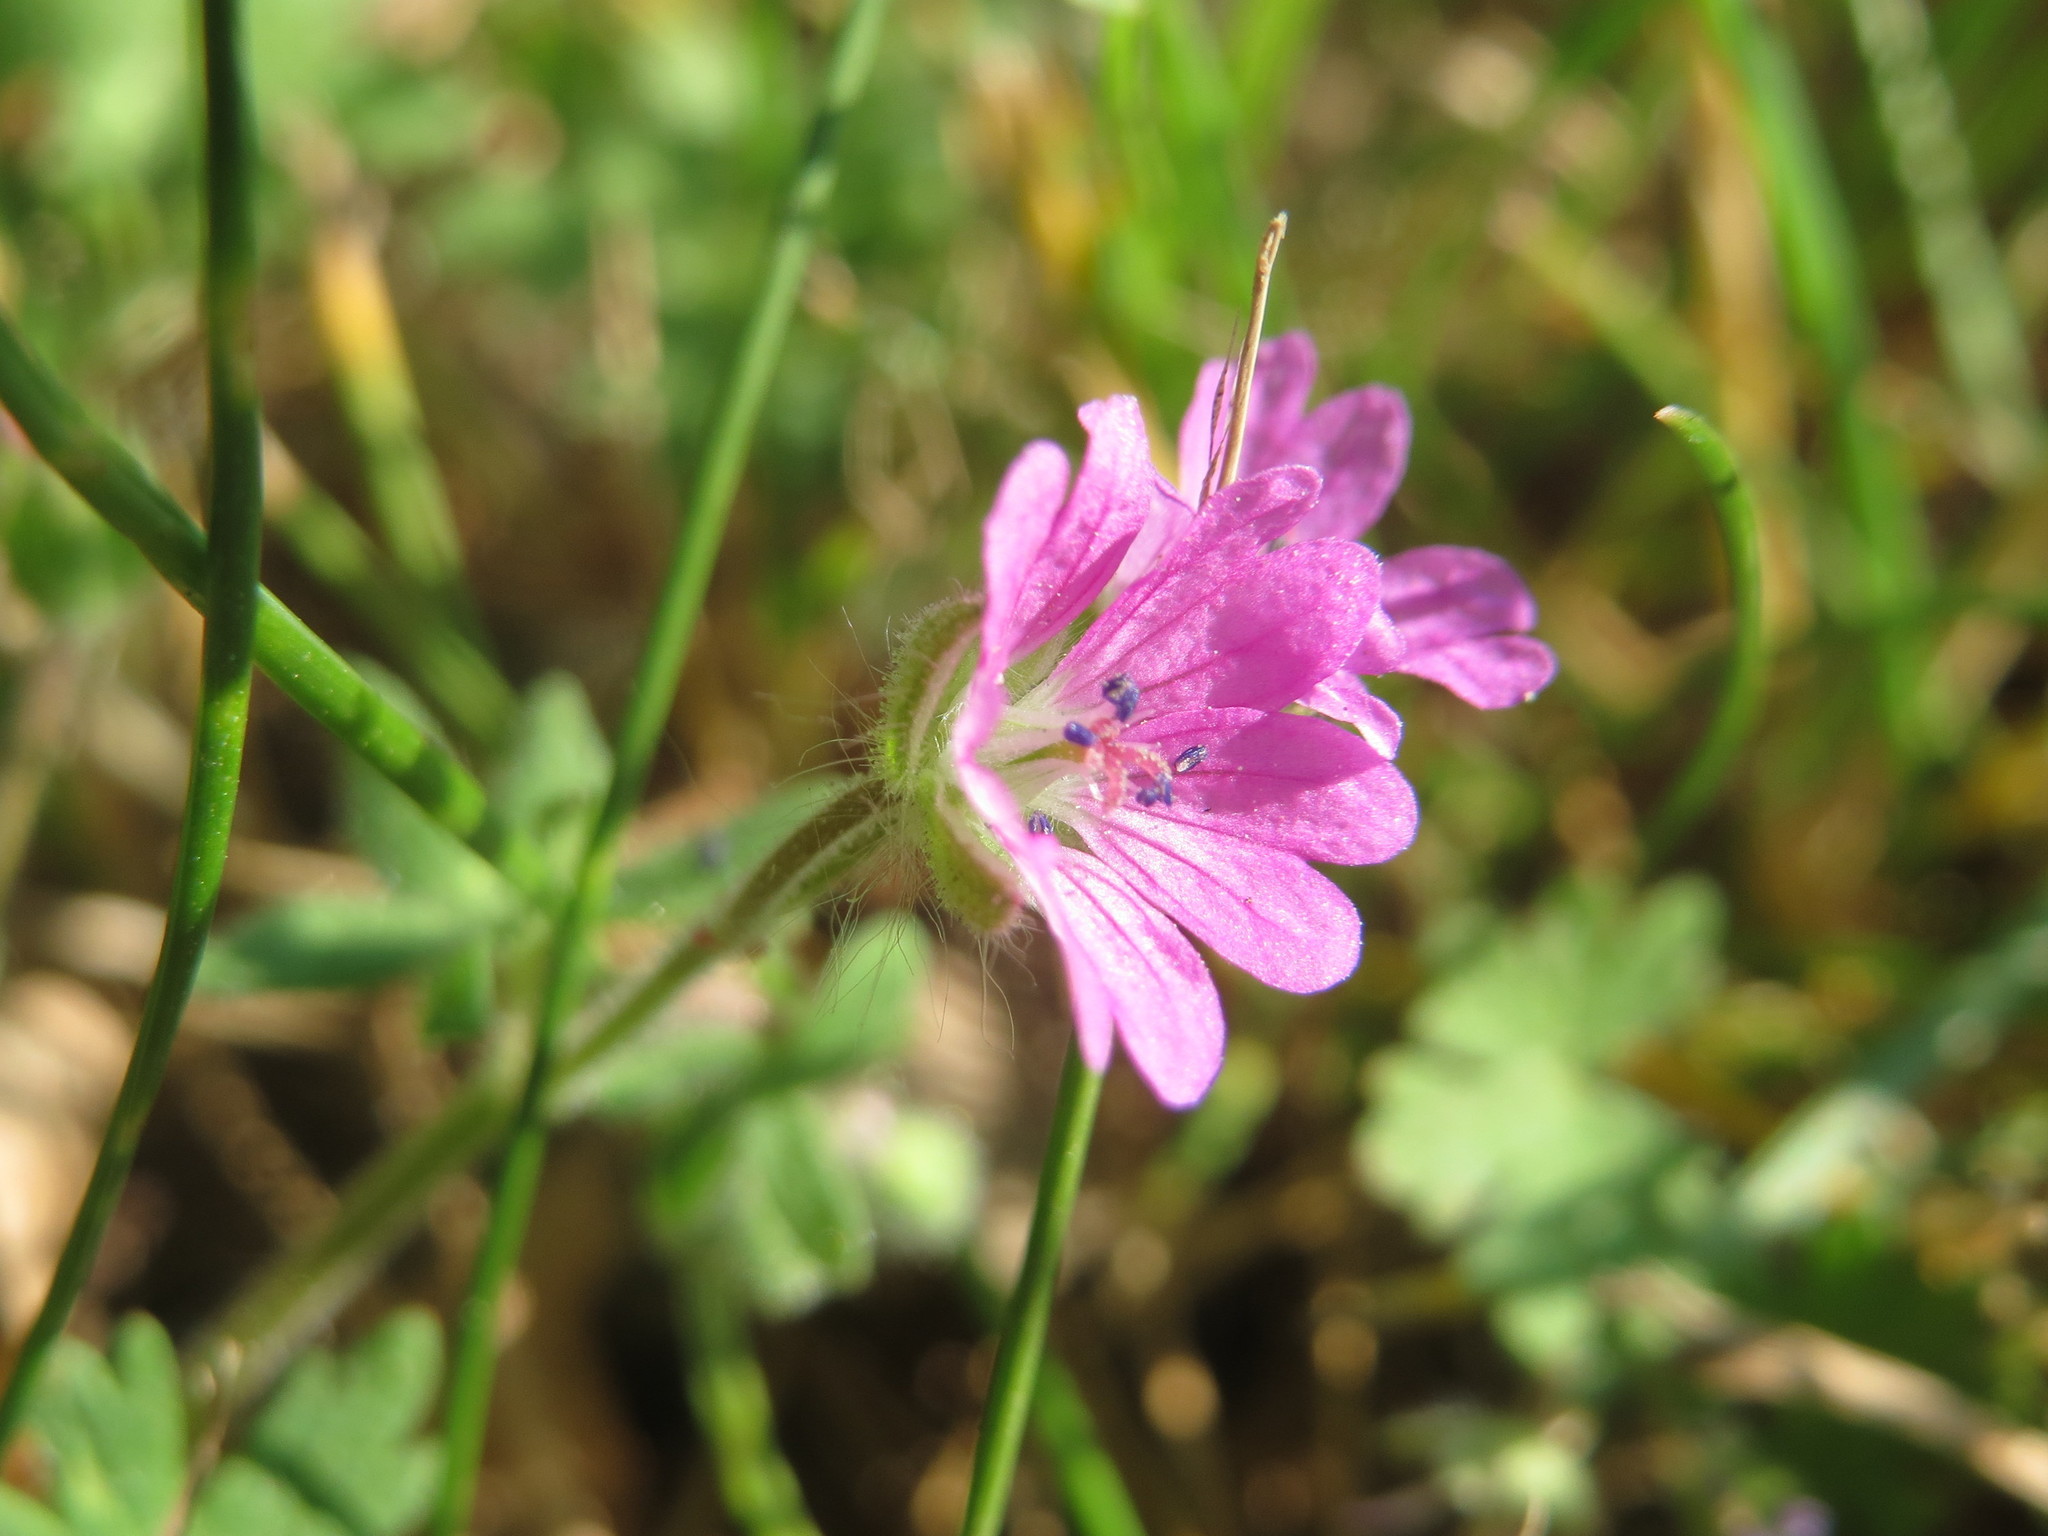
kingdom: Plantae
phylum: Tracheophyta
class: Magnoliopsida
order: Geraniales
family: Geraniaceae
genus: Geranium
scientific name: Geranium molle
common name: Dove's-foot crane's-bill
